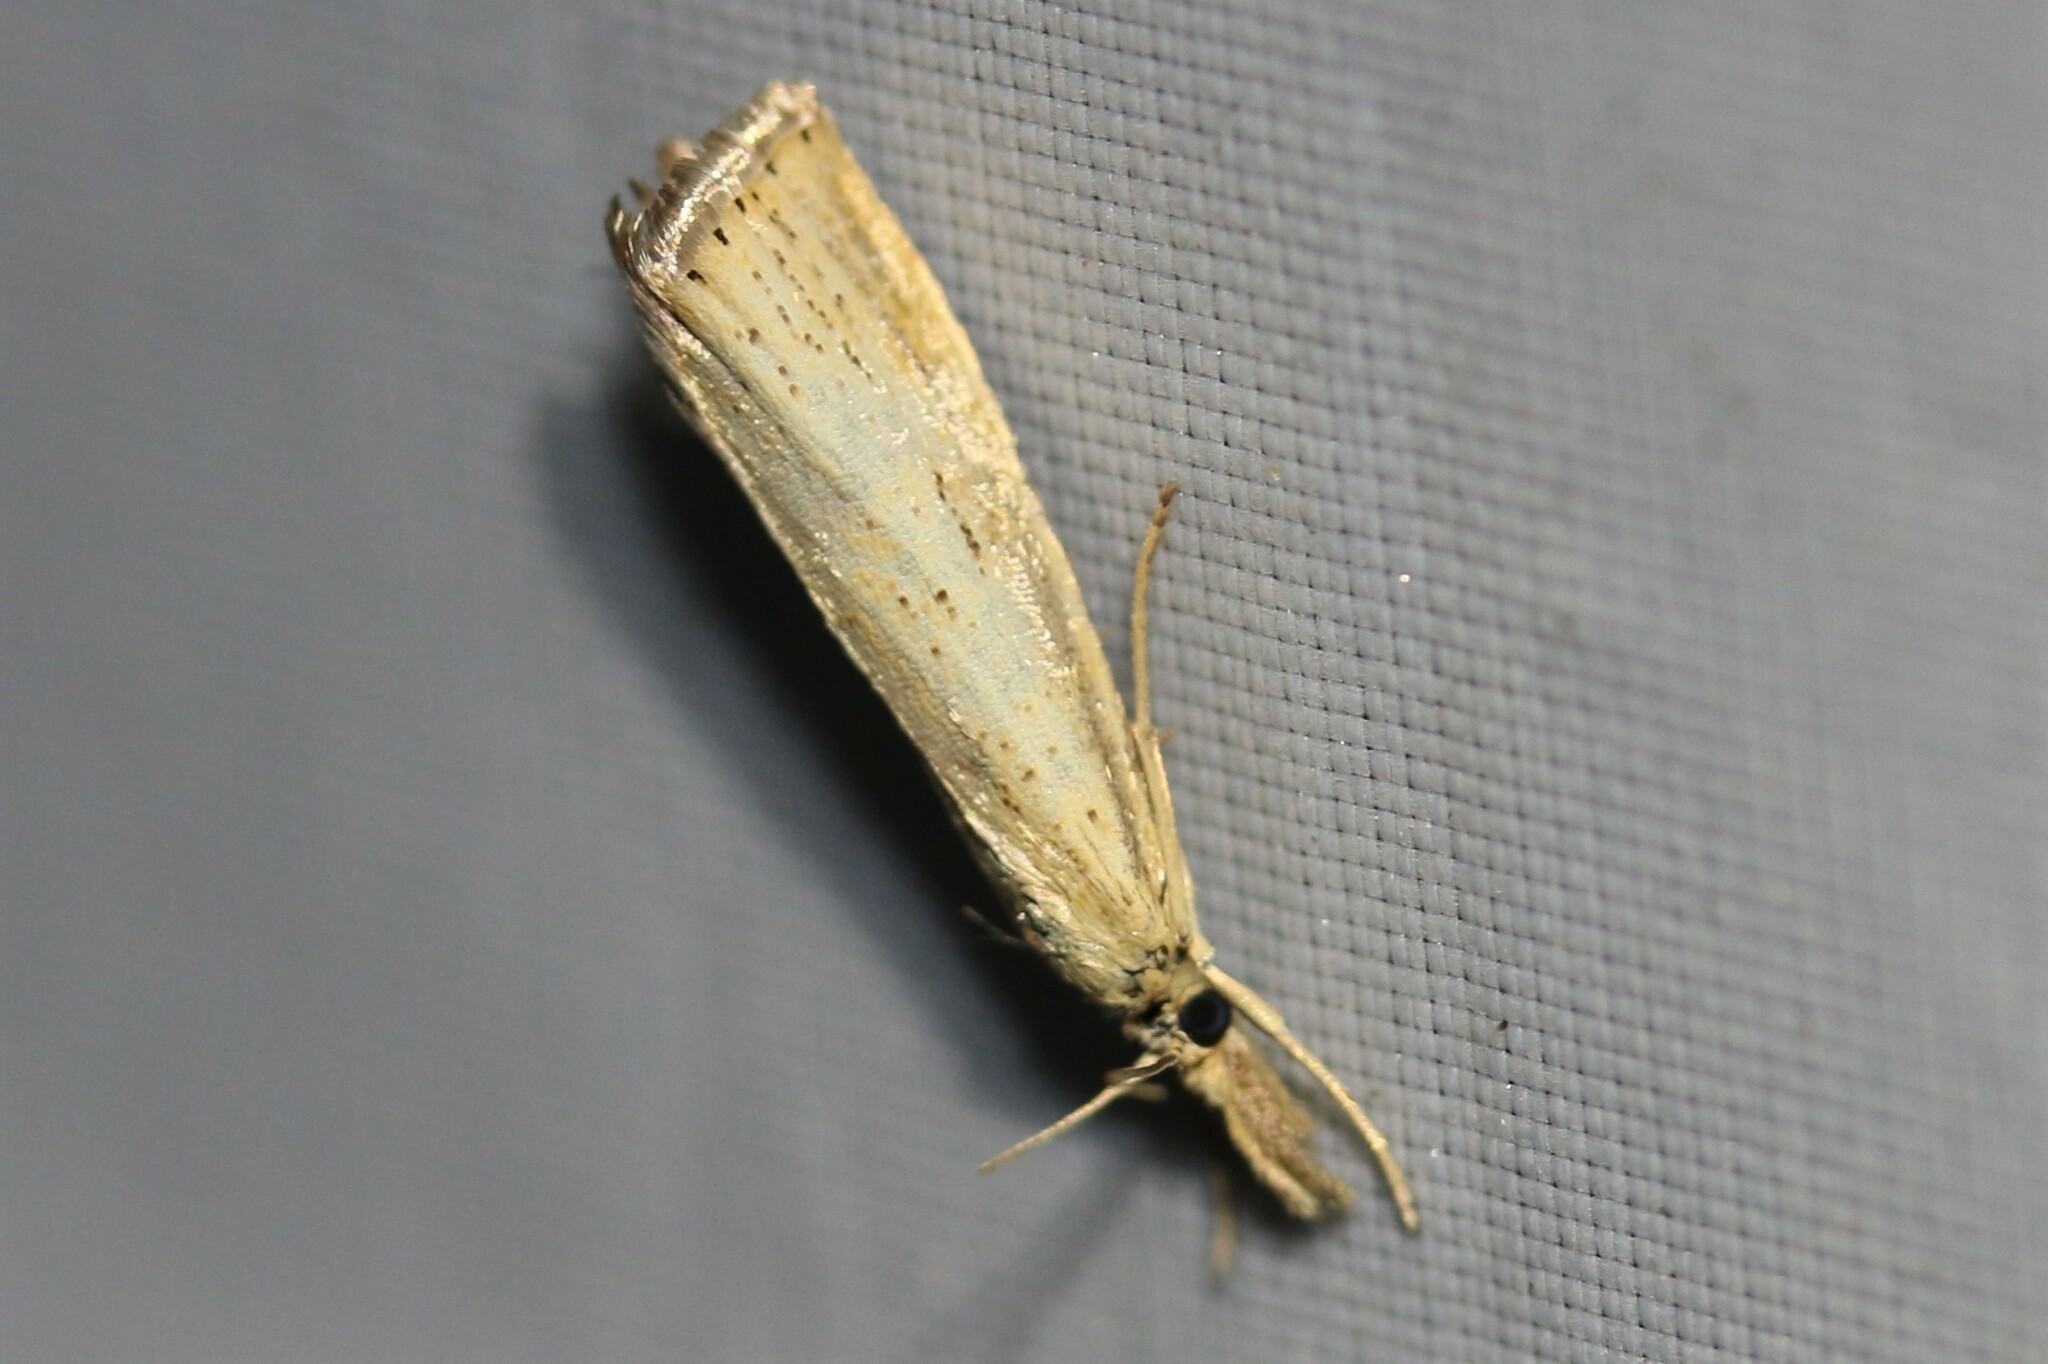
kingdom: Animalia
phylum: Arthropoda
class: Insecta
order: Lepidoptera
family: Crambidae
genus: Agriphila
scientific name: Agriphila straminella
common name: Straw grass-veneer
